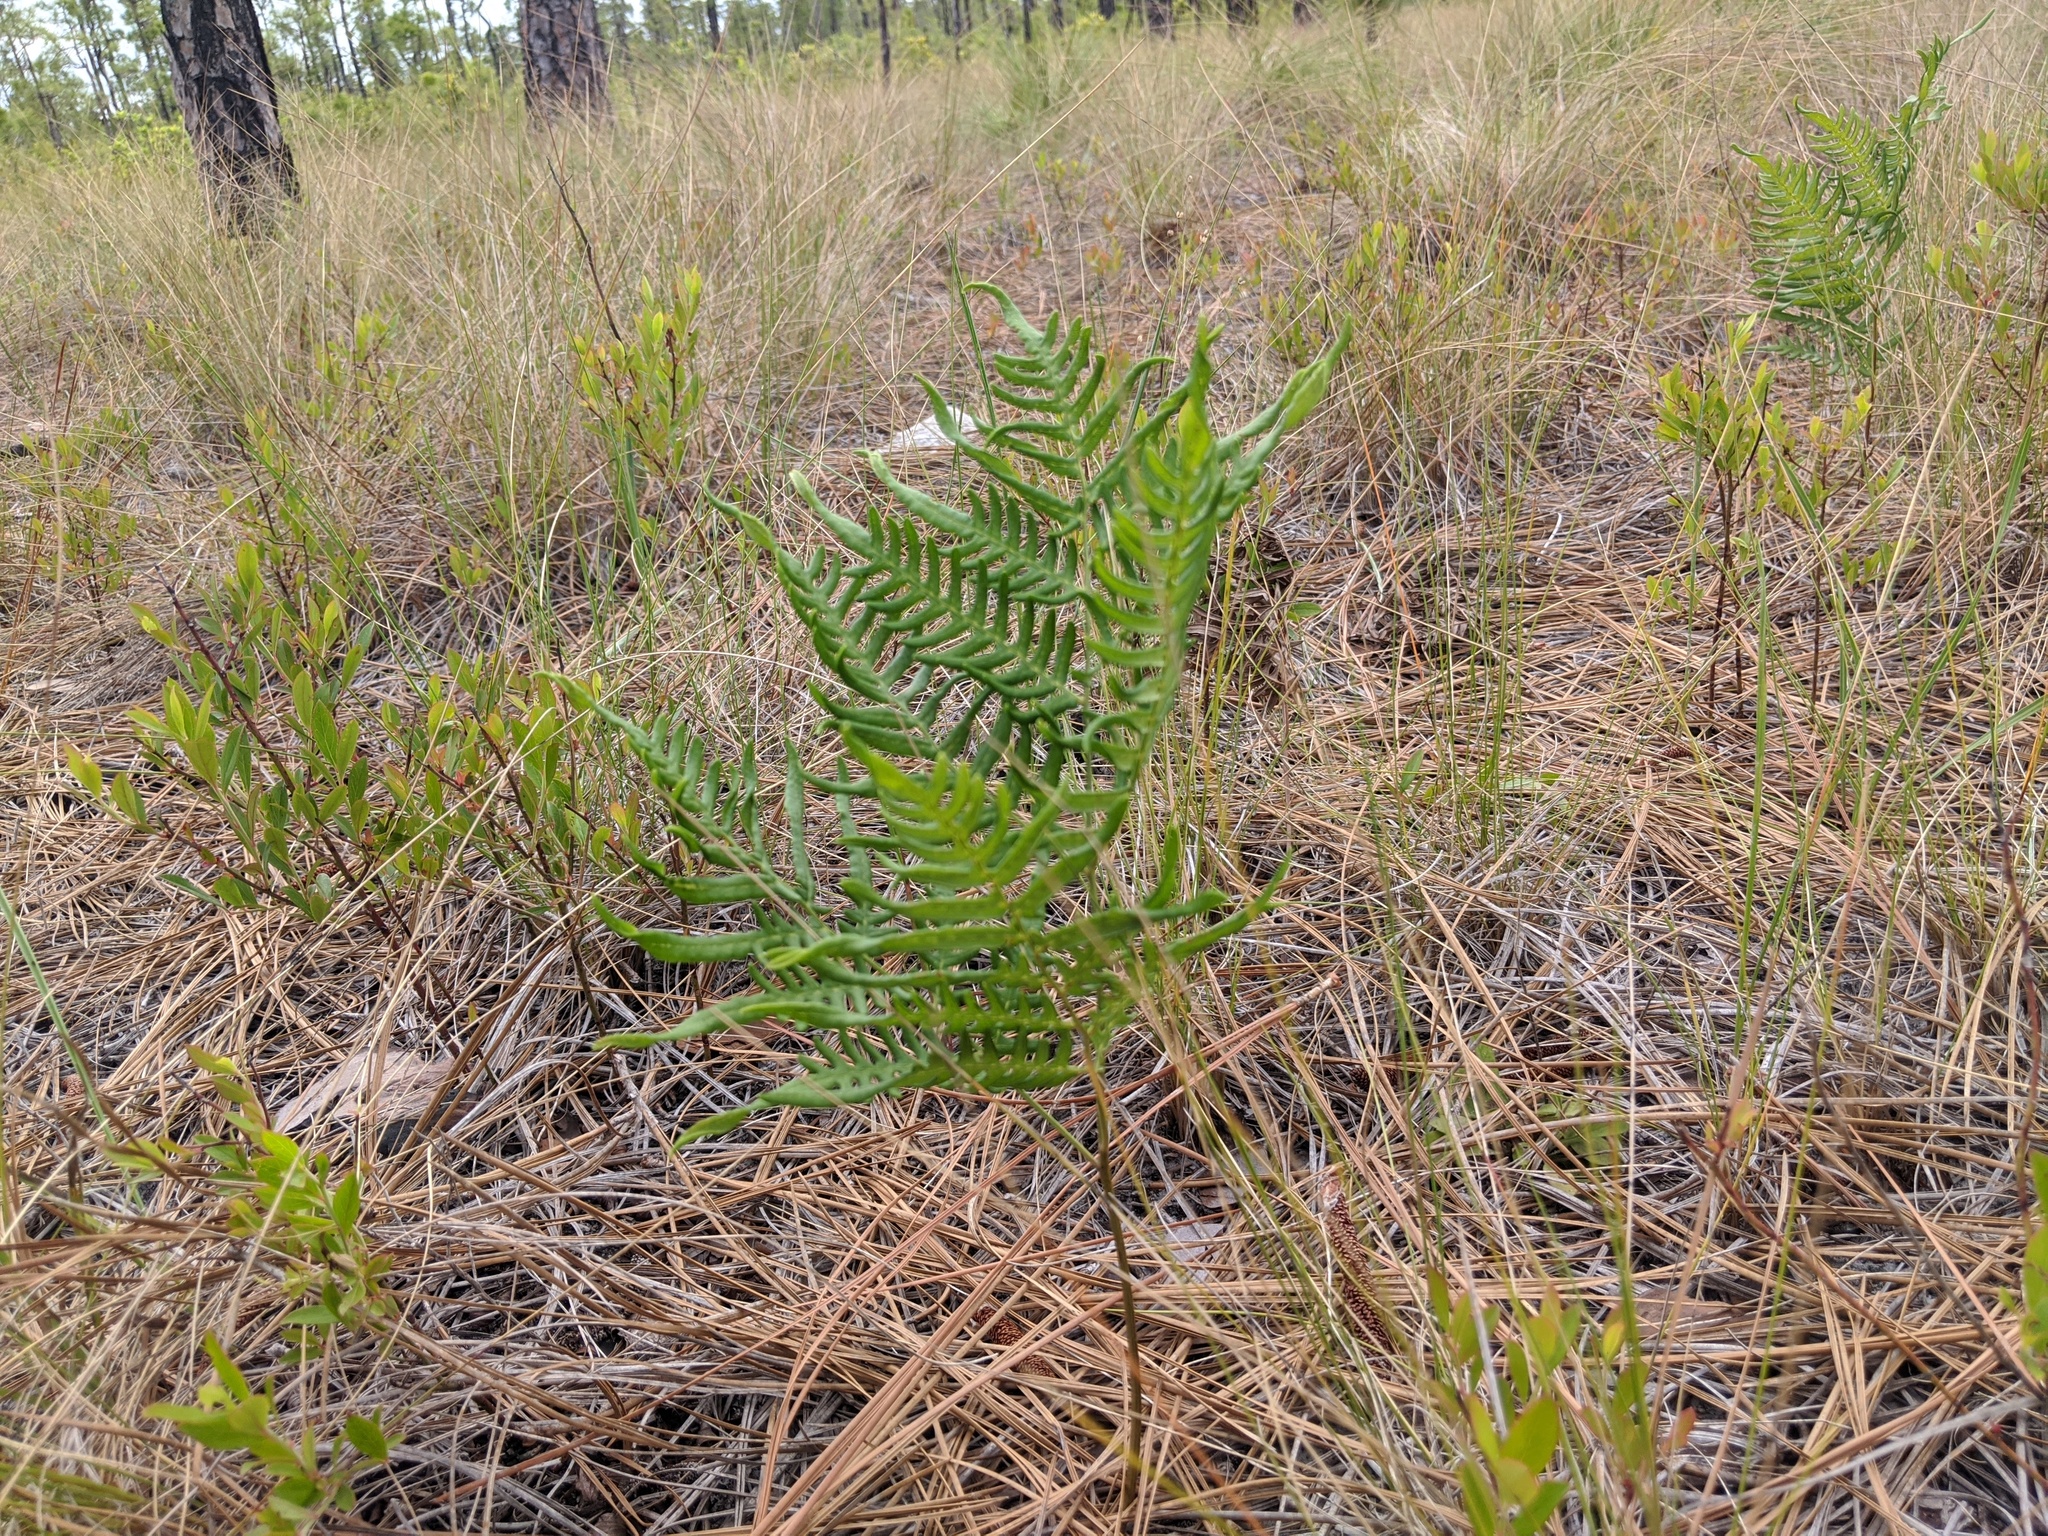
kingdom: Plantae
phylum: Tracheophyta
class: Polypodiopsida
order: Polypodiales
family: Dennstaedtiaceae
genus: Pteridium
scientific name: Pteridium aquilinum
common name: Bracken
